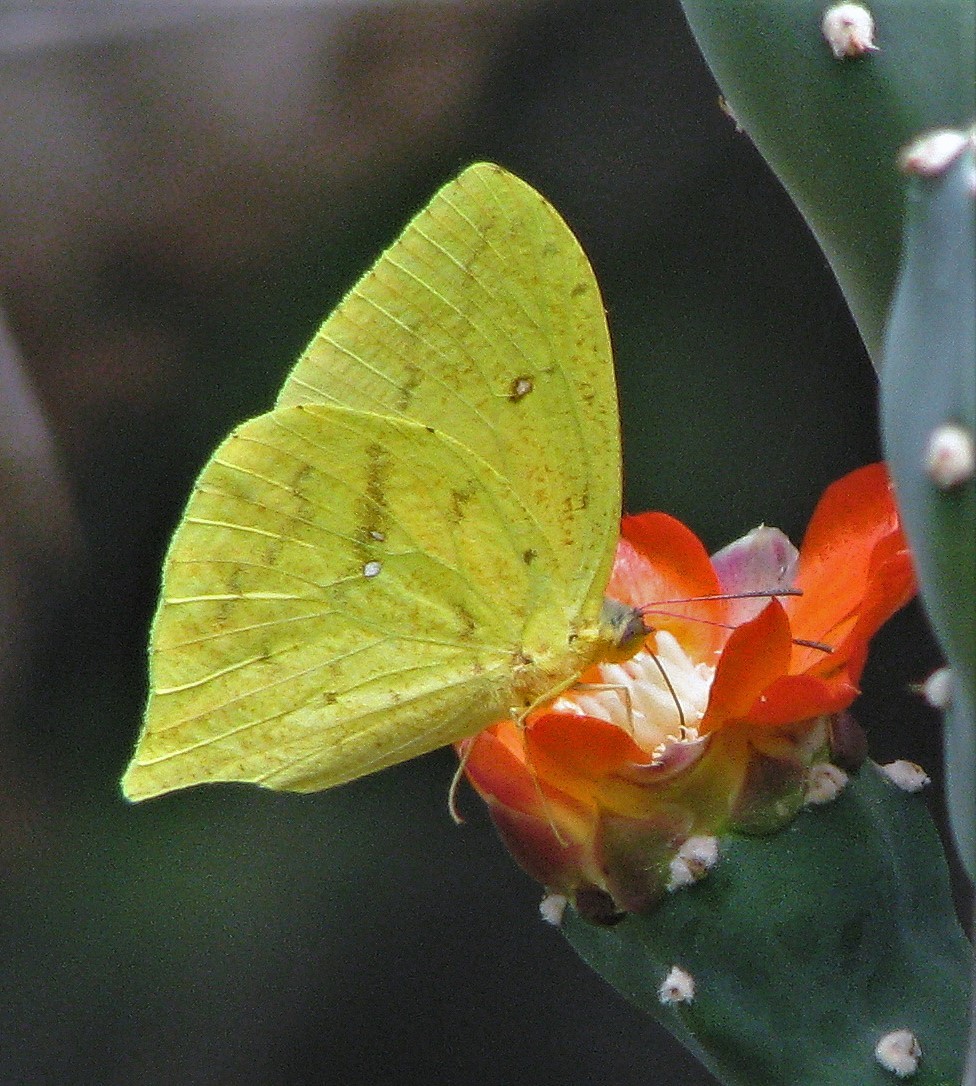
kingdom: Animalia
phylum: Arthropoda
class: Insecta
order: Lepidoptera
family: Pieridae
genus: Phoebis
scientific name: Phoebis neocypris
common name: Tailed sulphur
